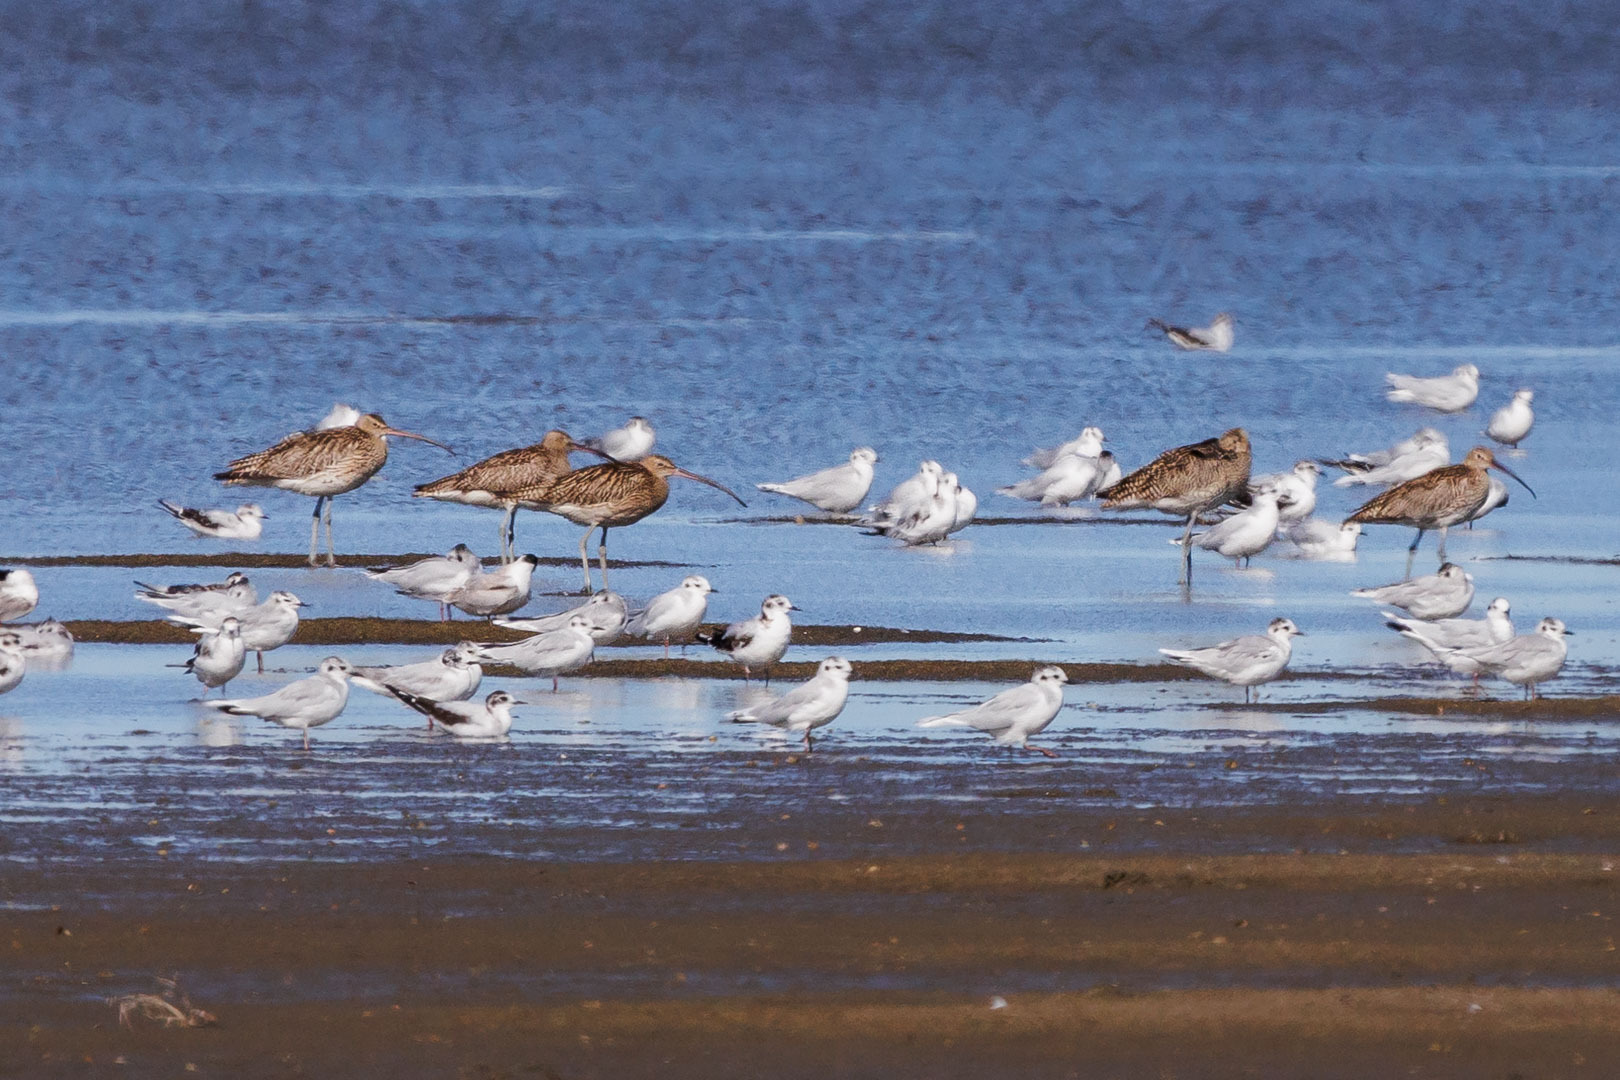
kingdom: Animalia
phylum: Chordata
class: Aves
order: Charadriiformes
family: Scolopacidae
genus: Numenius
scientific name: Numenius arquata
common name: Eurasian curlew
